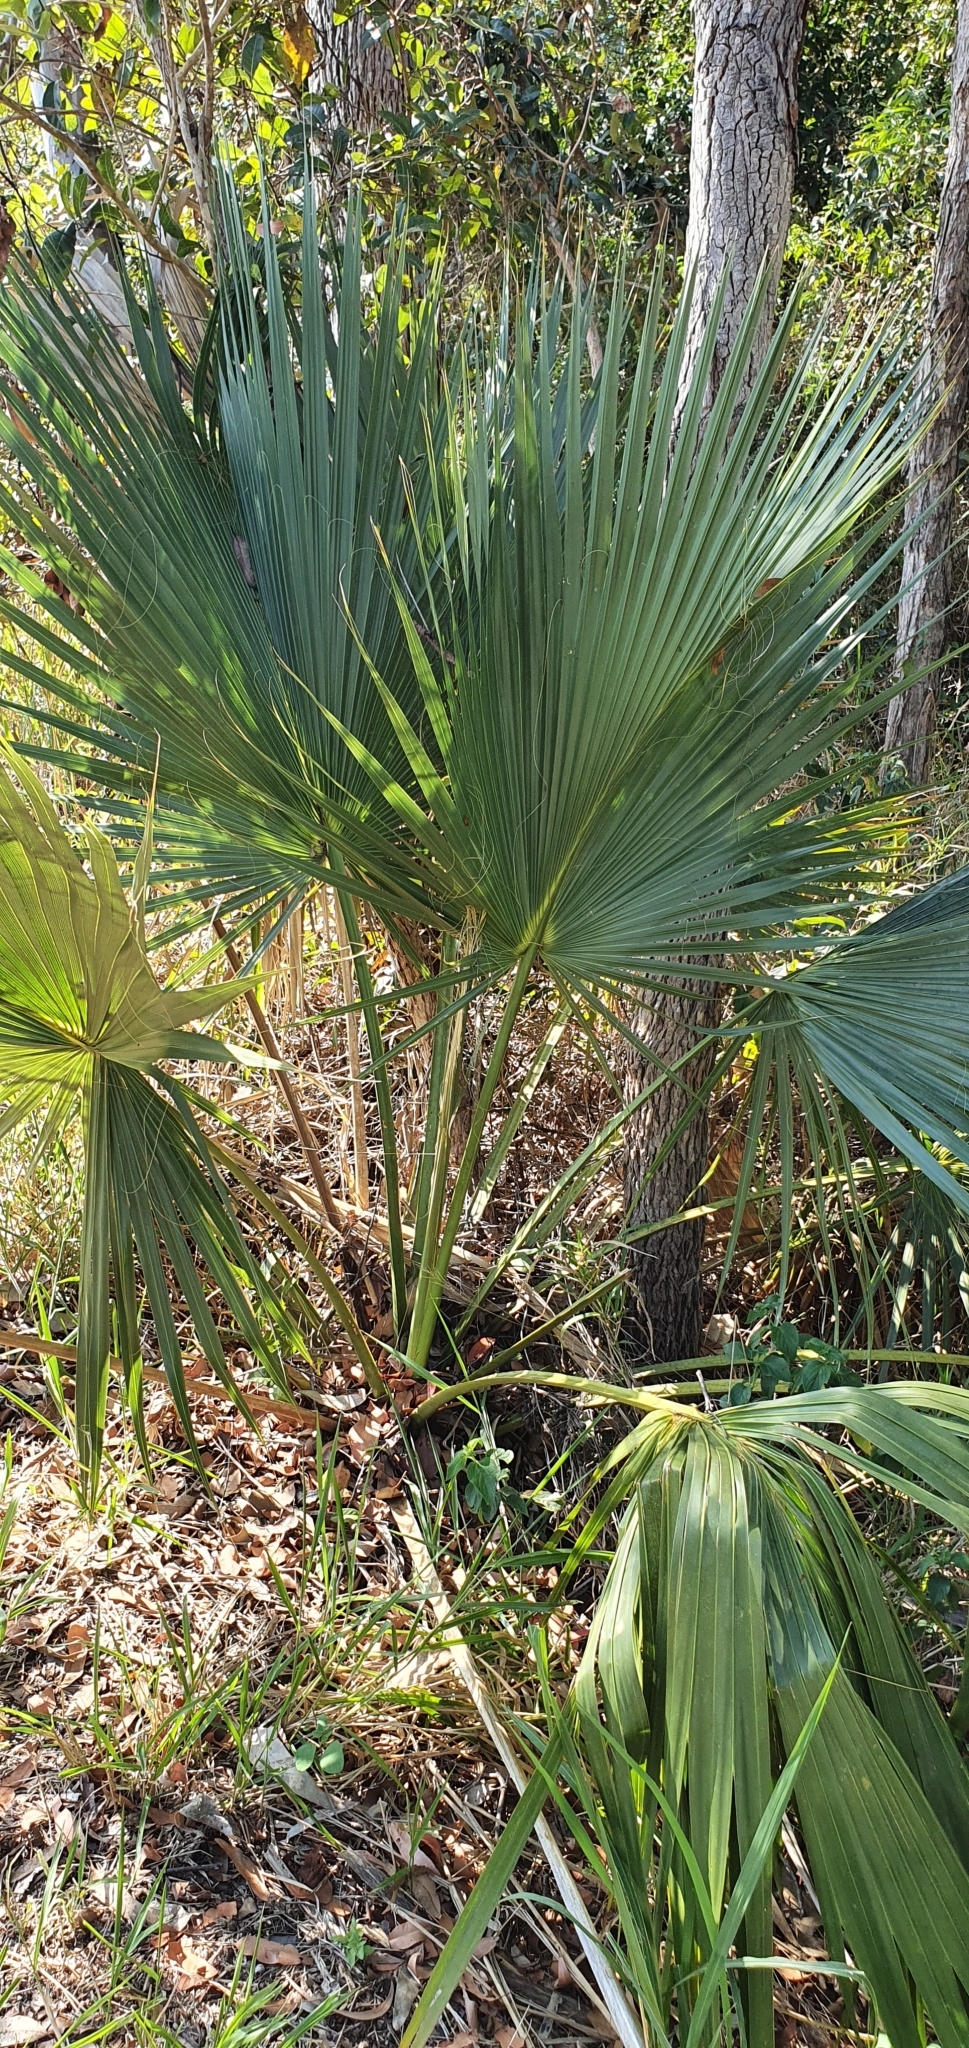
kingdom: Plantae
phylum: Tracheophyta
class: Liliopsida
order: Arecales
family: Arecaceae
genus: Livistona
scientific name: Livistona australis
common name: Cabbage fan palm
